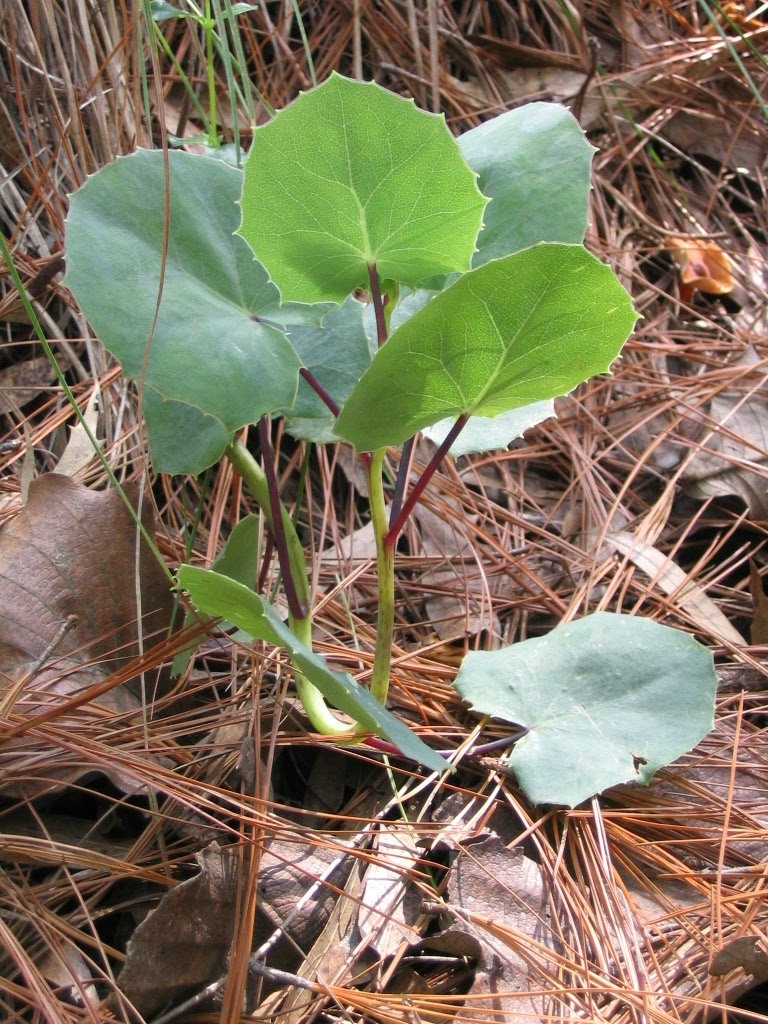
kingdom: Plantae
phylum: Tracheophyta
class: Magnoliopsida
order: Asterales
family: Asteraceae
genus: Roldana
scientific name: Roldana sessilifolia
